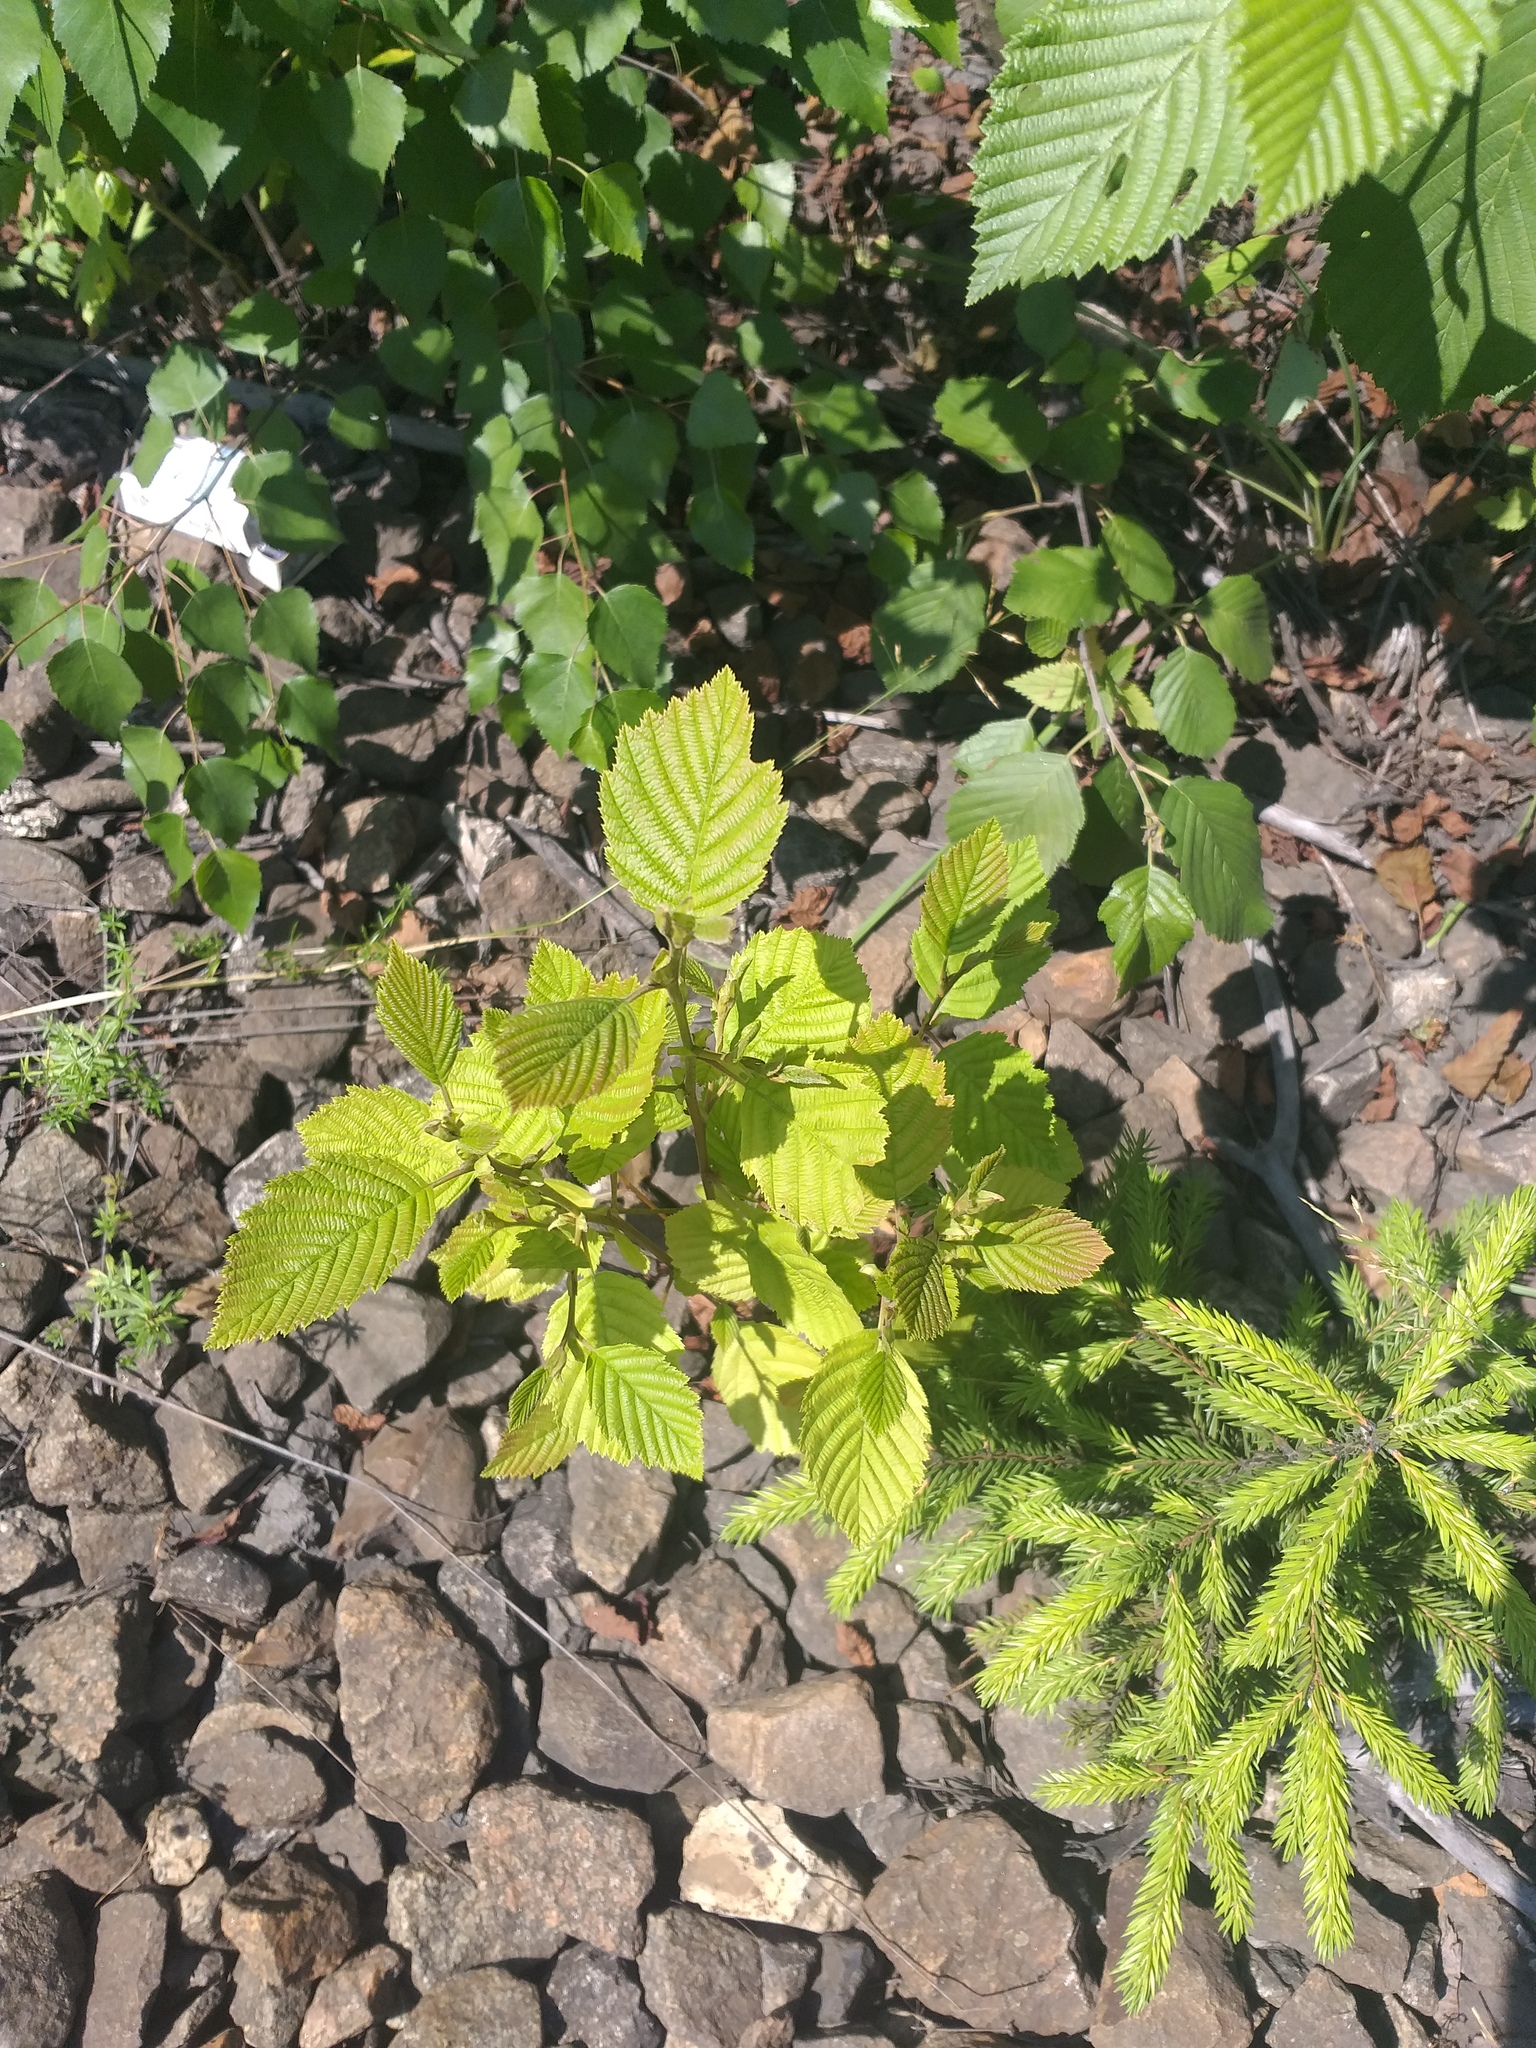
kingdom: Plantae
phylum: Tracheophyta
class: Magnoliopsida
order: Fagales
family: Betulaceae
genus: Alnus
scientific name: Alnus incana
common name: Grey alder
